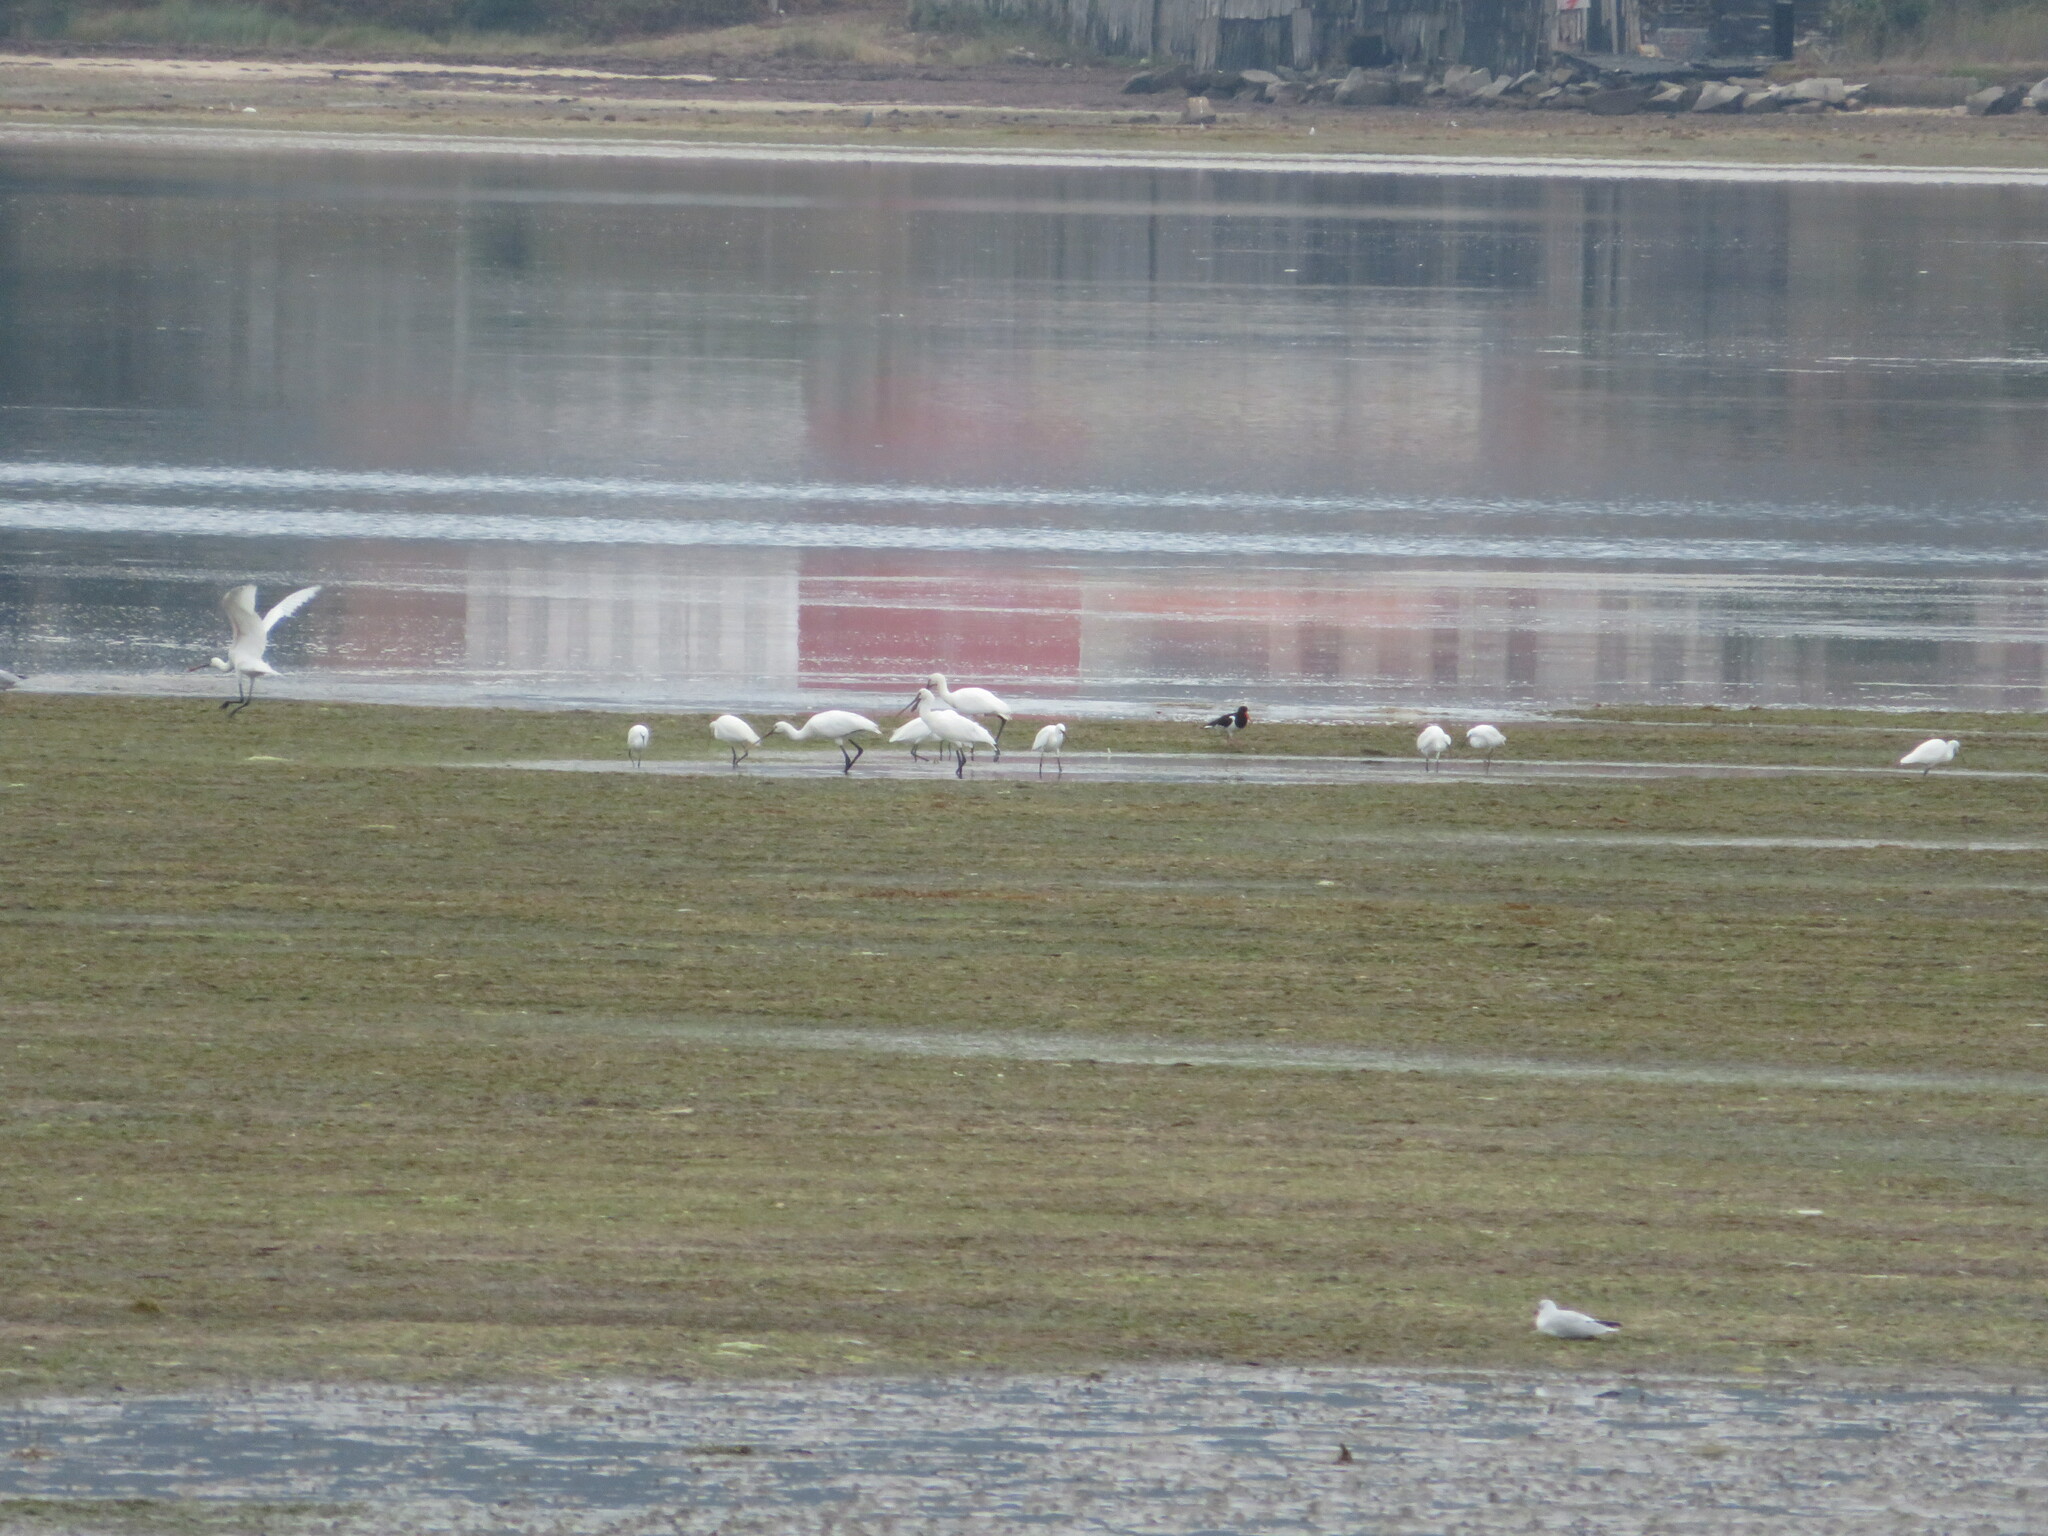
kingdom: Animalia
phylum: Chordata
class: Aves
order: Pelecaniformes
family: Threskiornithidae
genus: Platalea
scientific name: Platalea leucorodia
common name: Eurasian spoonbill
